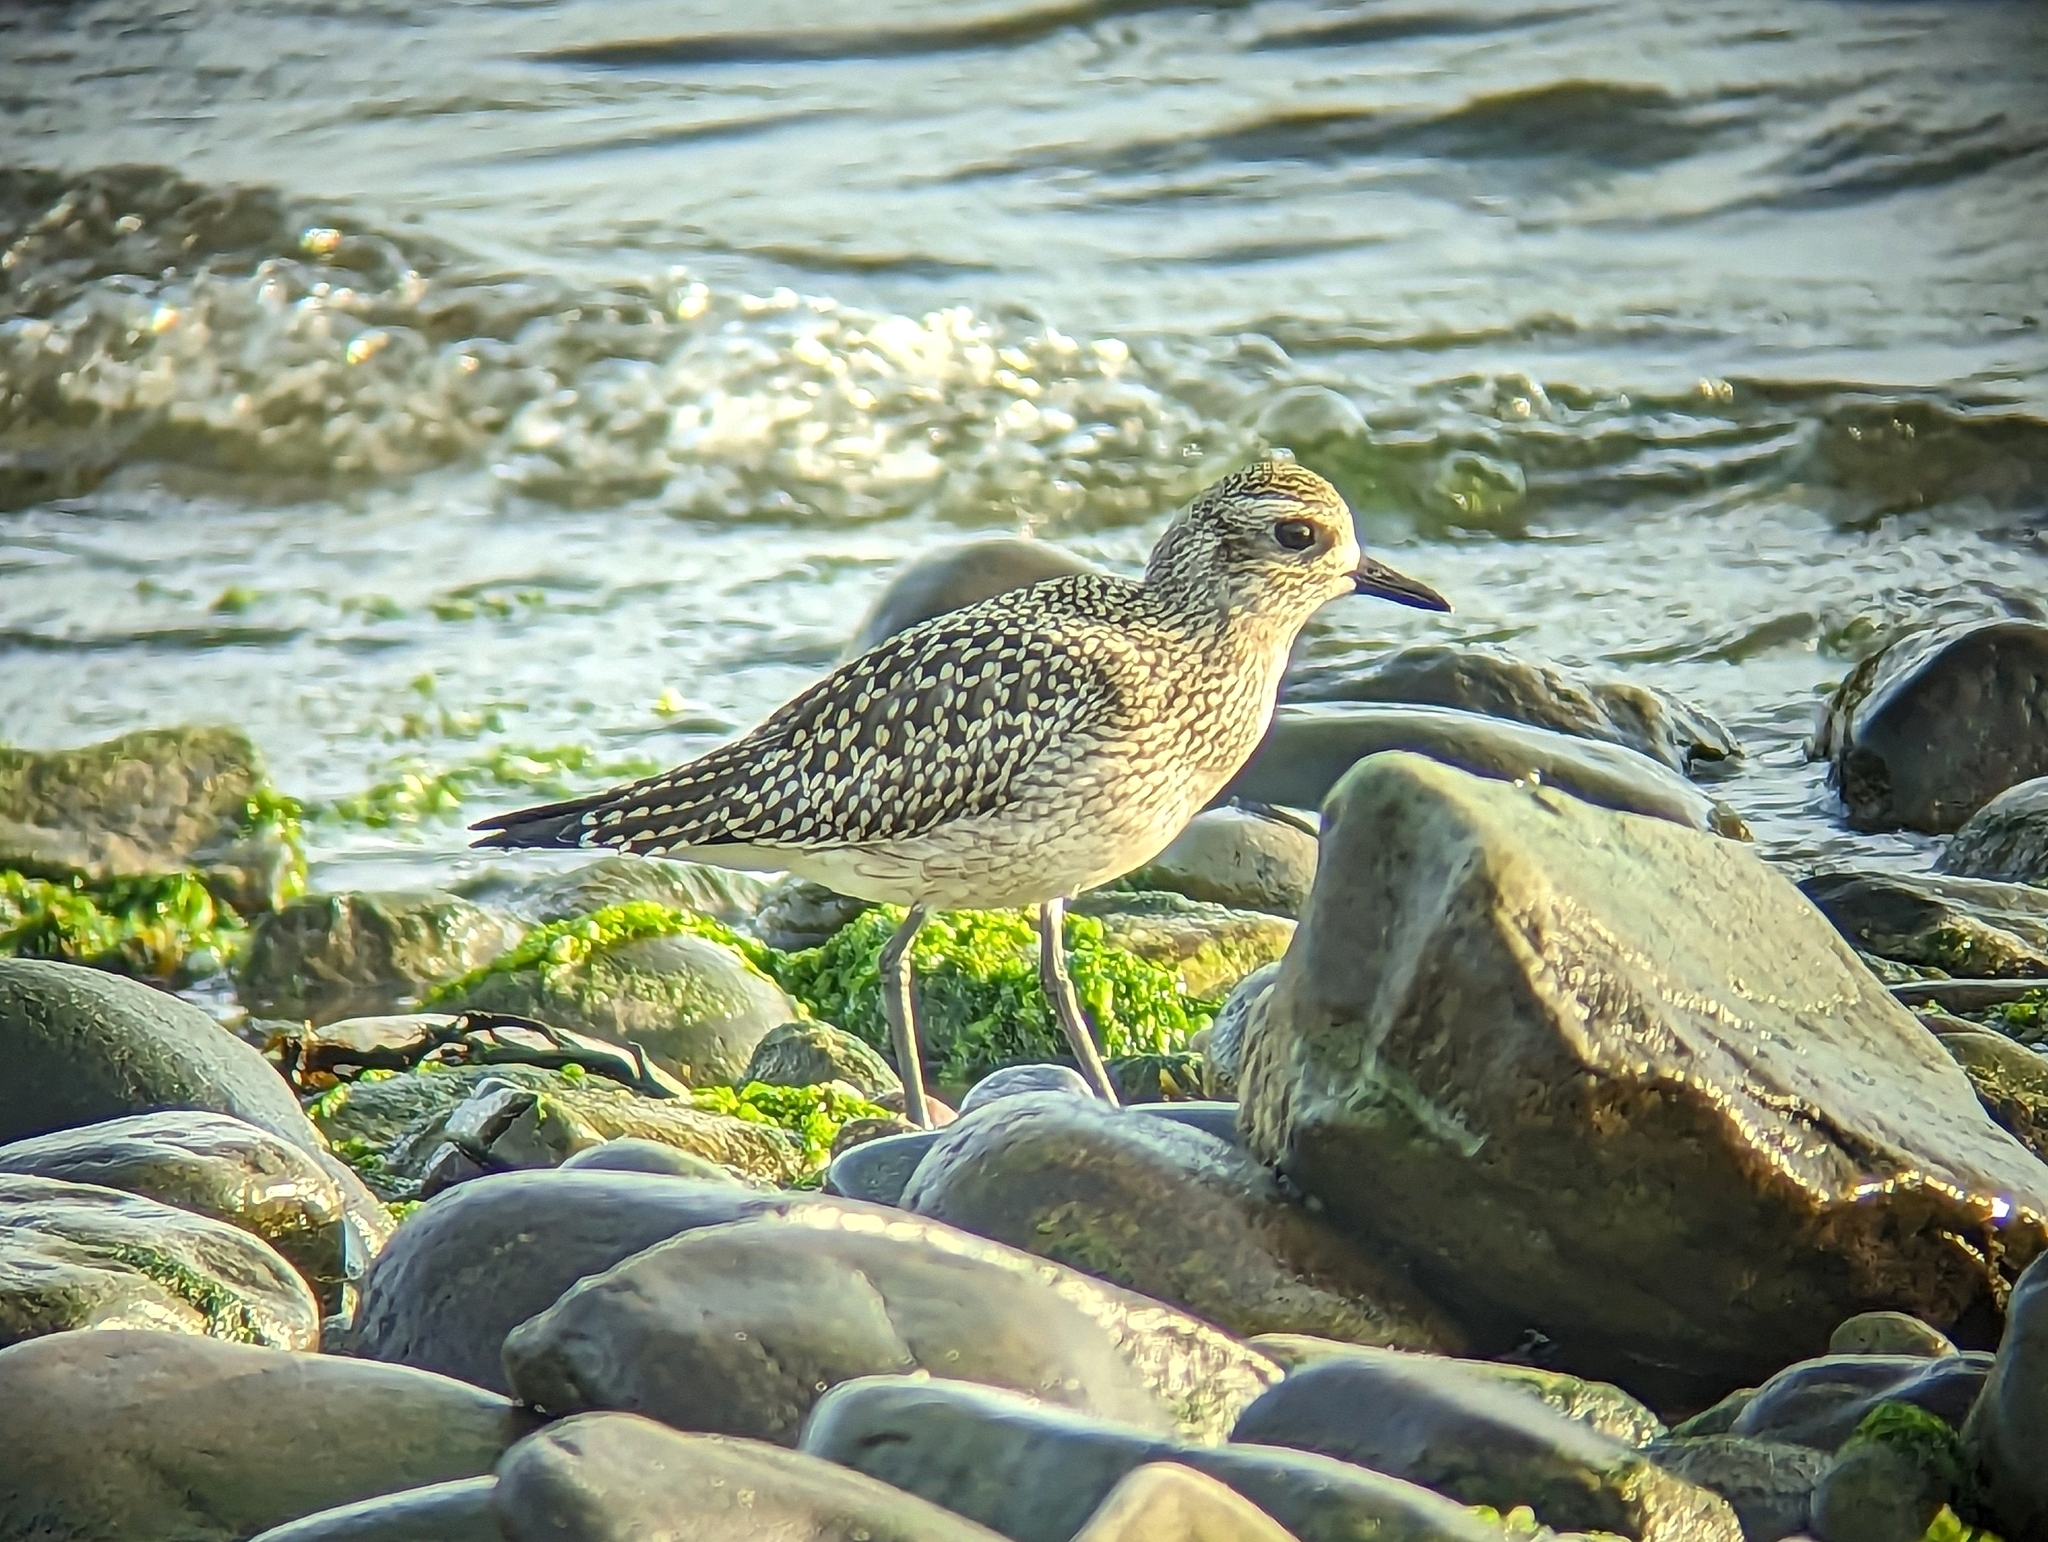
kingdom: Animalia
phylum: Chordata
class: Aves
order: Charadriiformes
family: Charadriidae
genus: Pluvialis
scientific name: Pluvialis squatarola
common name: Grey plover
